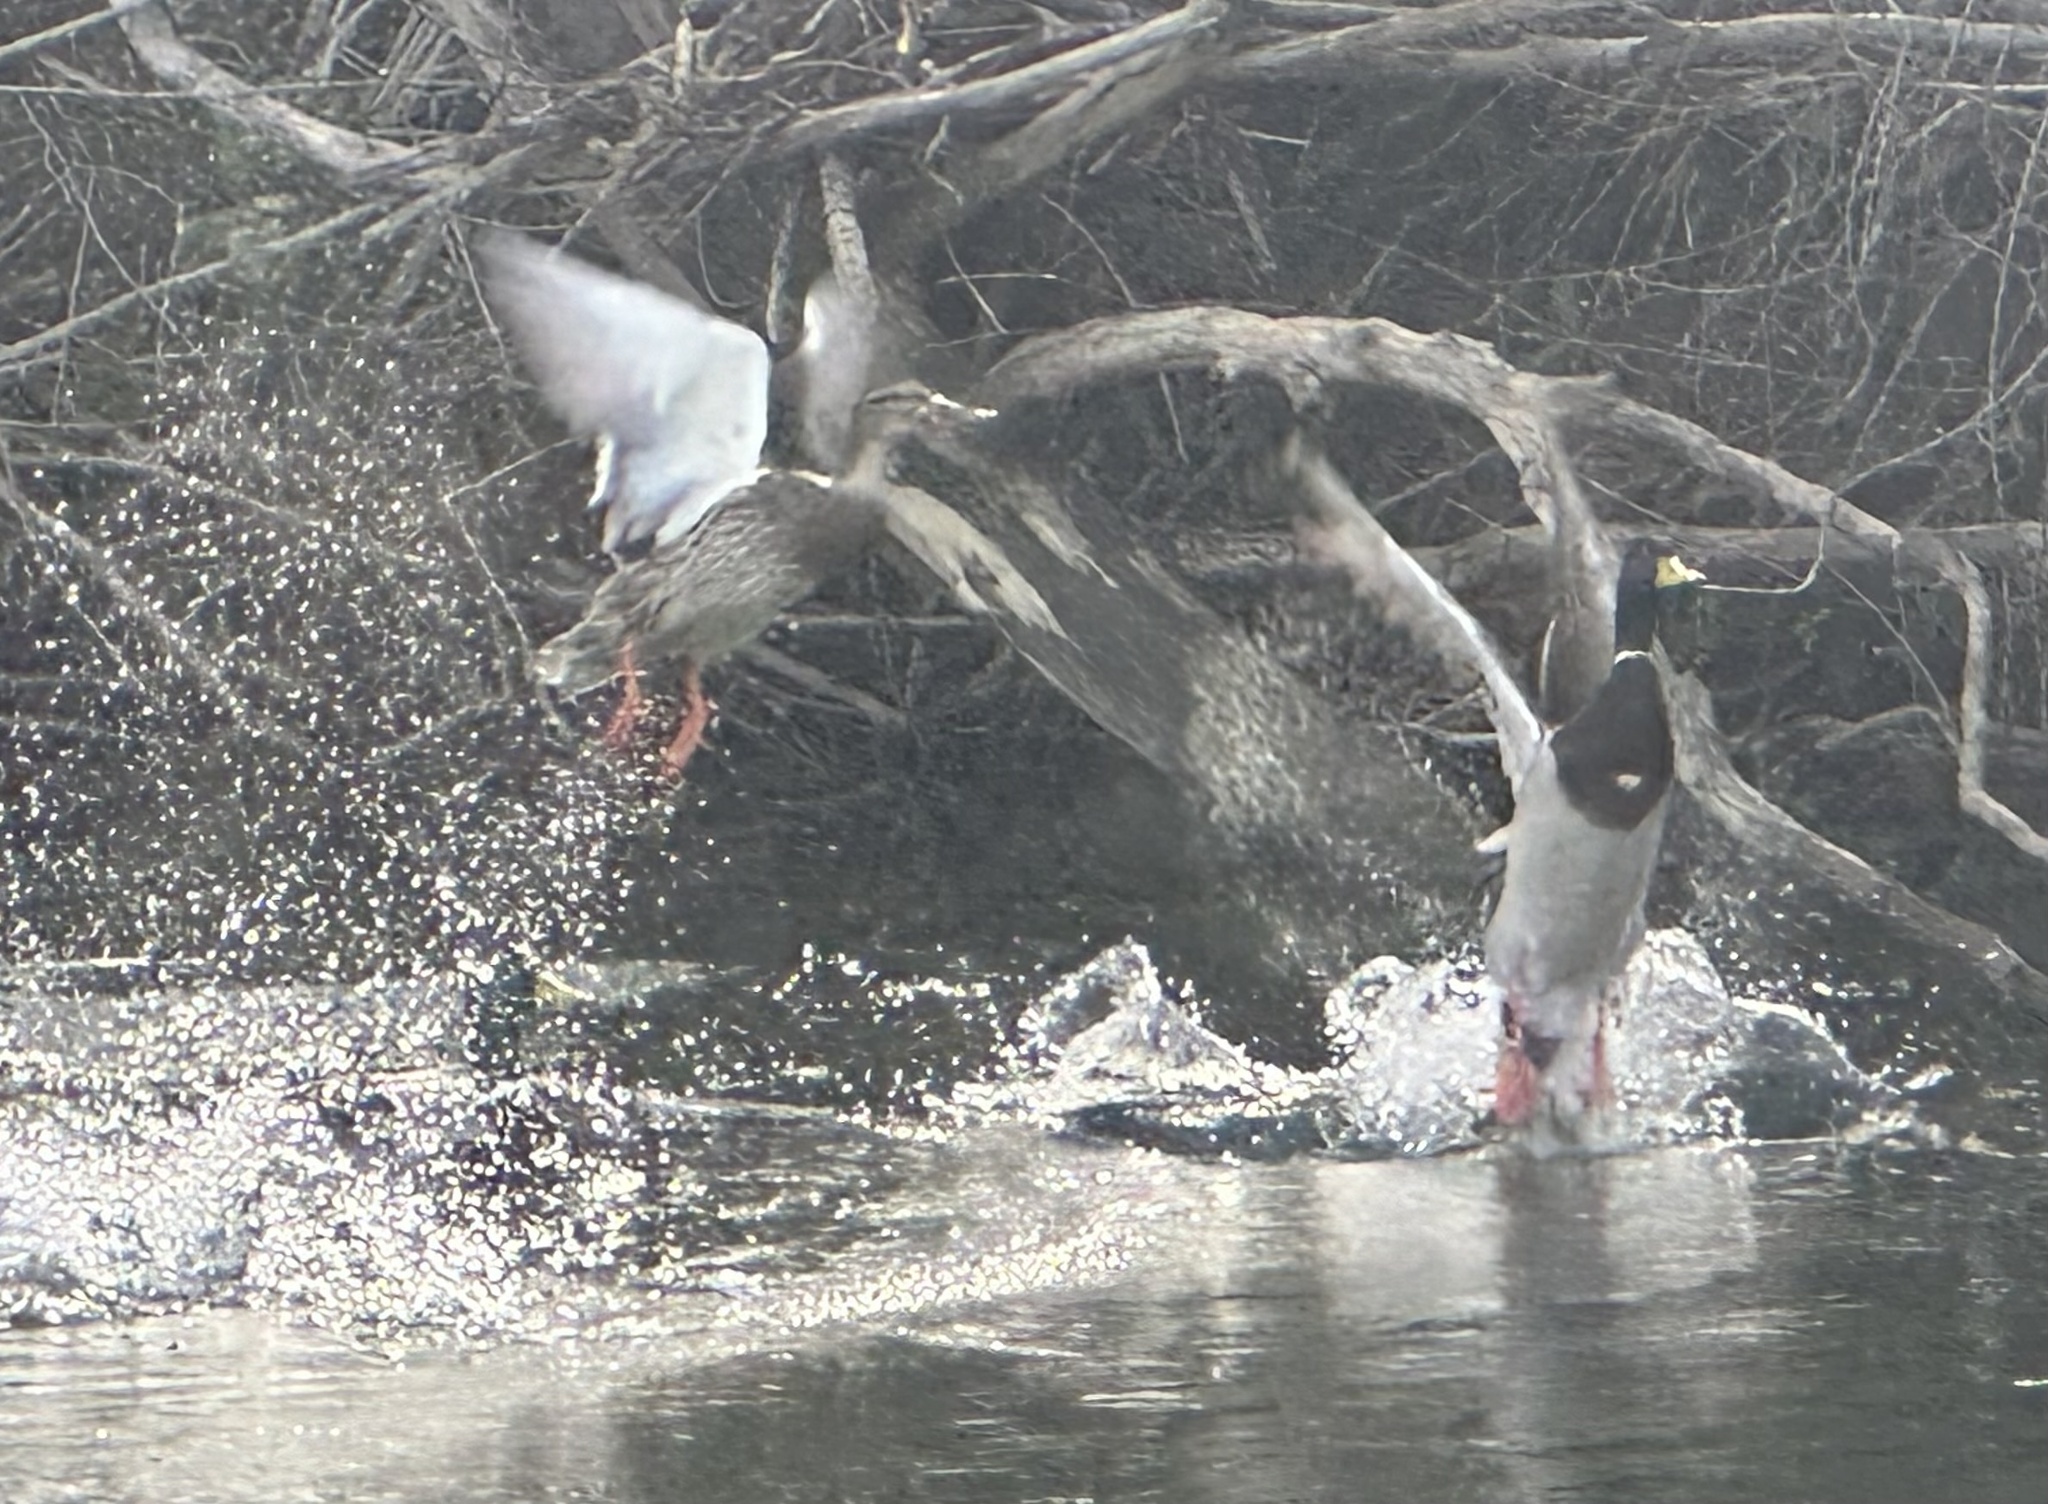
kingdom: Animalia
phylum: Chordata
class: Aves
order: Anseriformes
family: Anatidae
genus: Anas
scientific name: Anas platyrhynchos
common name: Mallard
